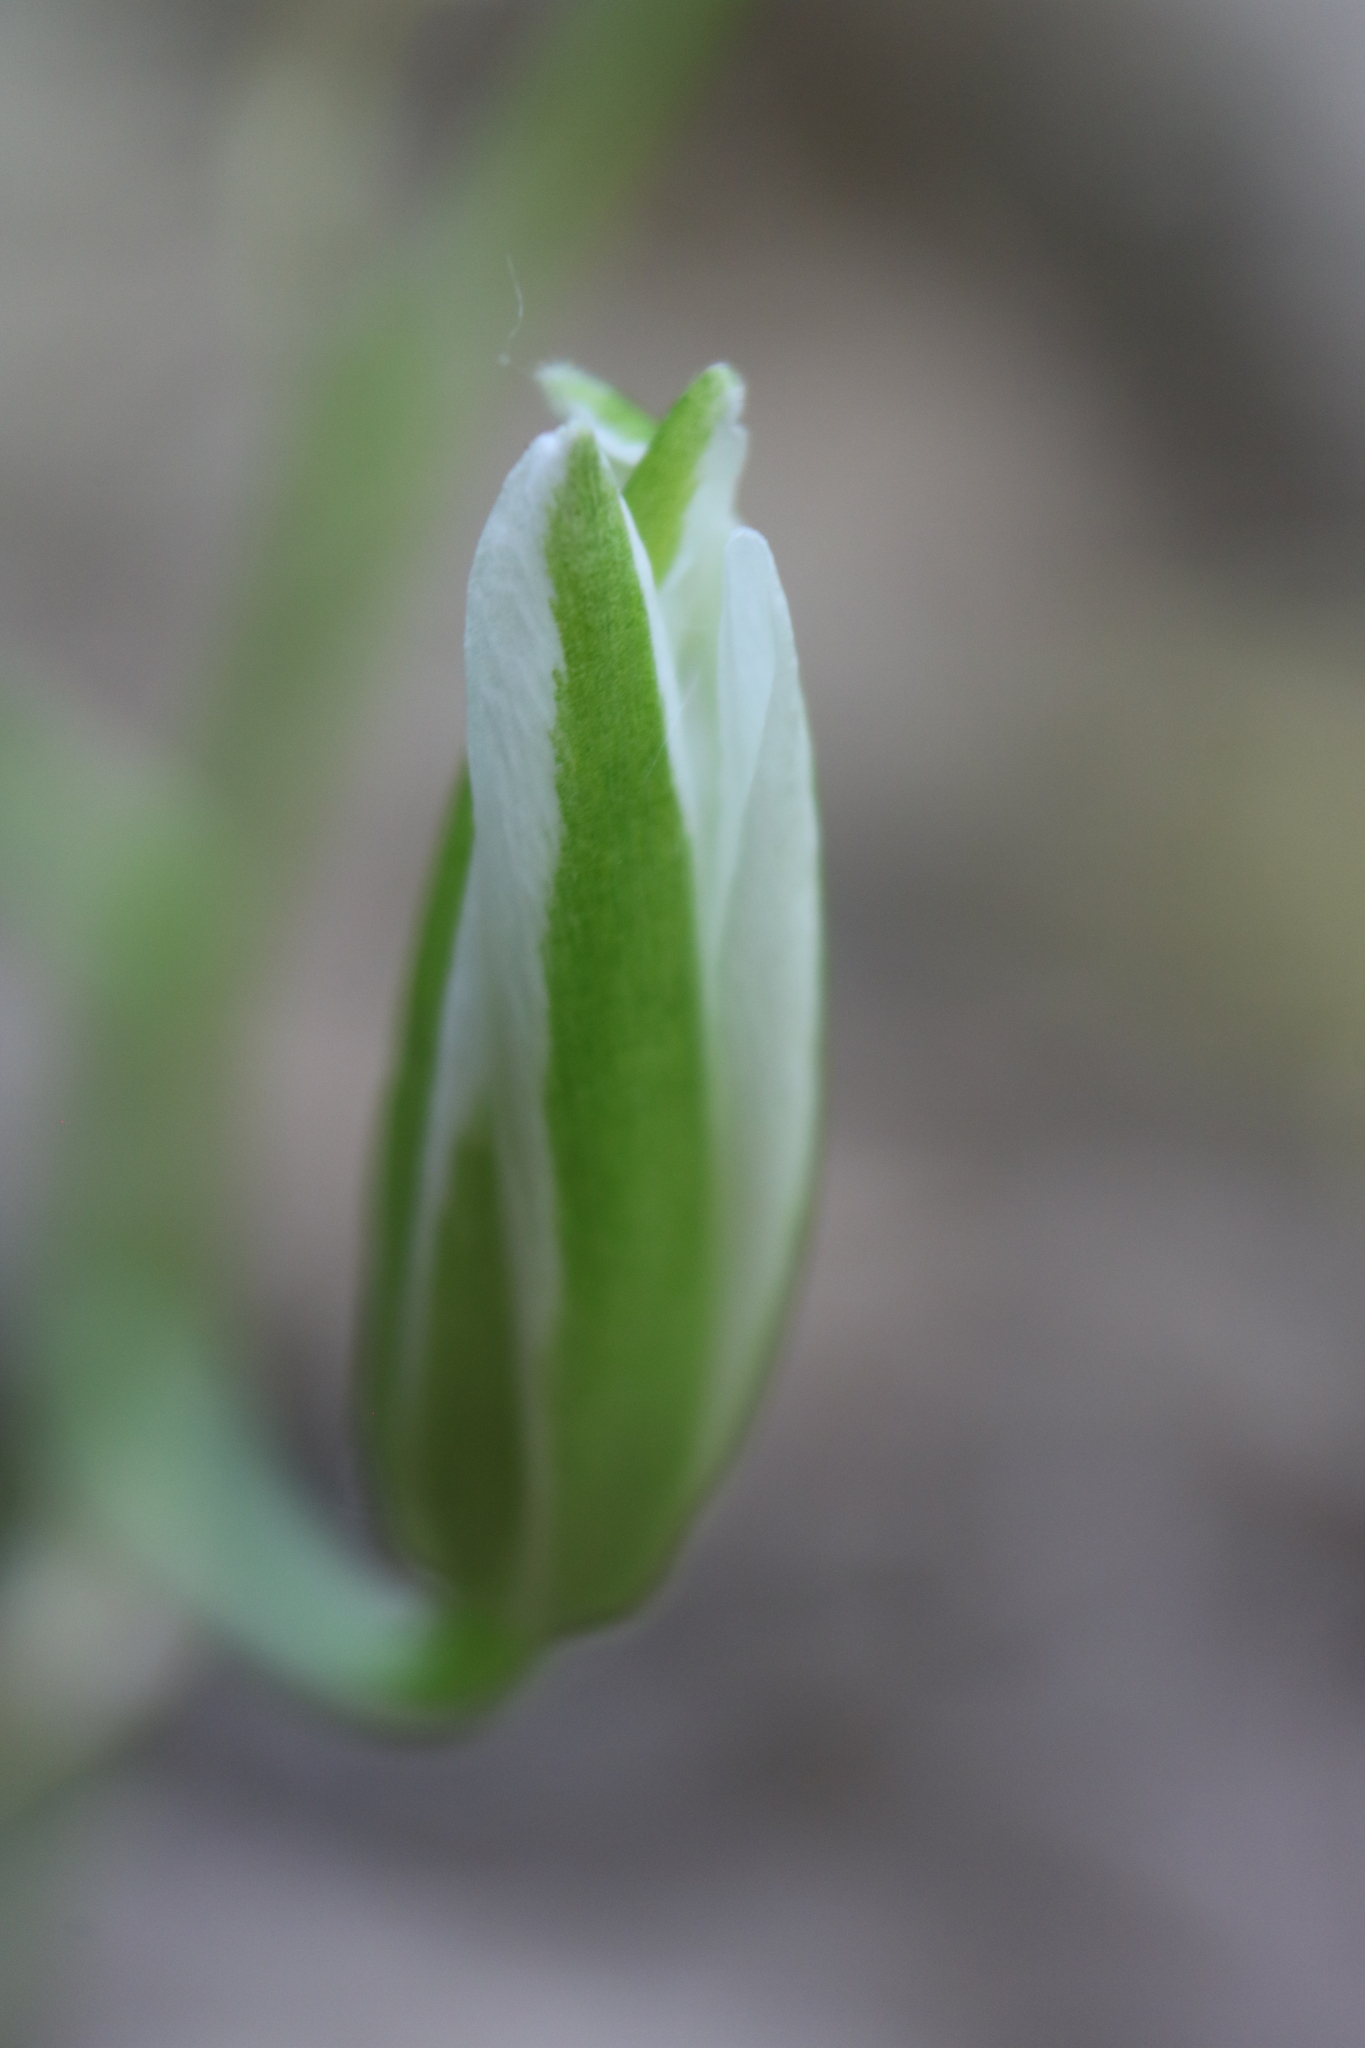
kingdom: Plantae
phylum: Tracheophyta
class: Liliopsida
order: Asparagales
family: Asparagaceae
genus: Ornithogalum
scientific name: Ornithogalum umbellatum
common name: Garden star-of-bethlehem
